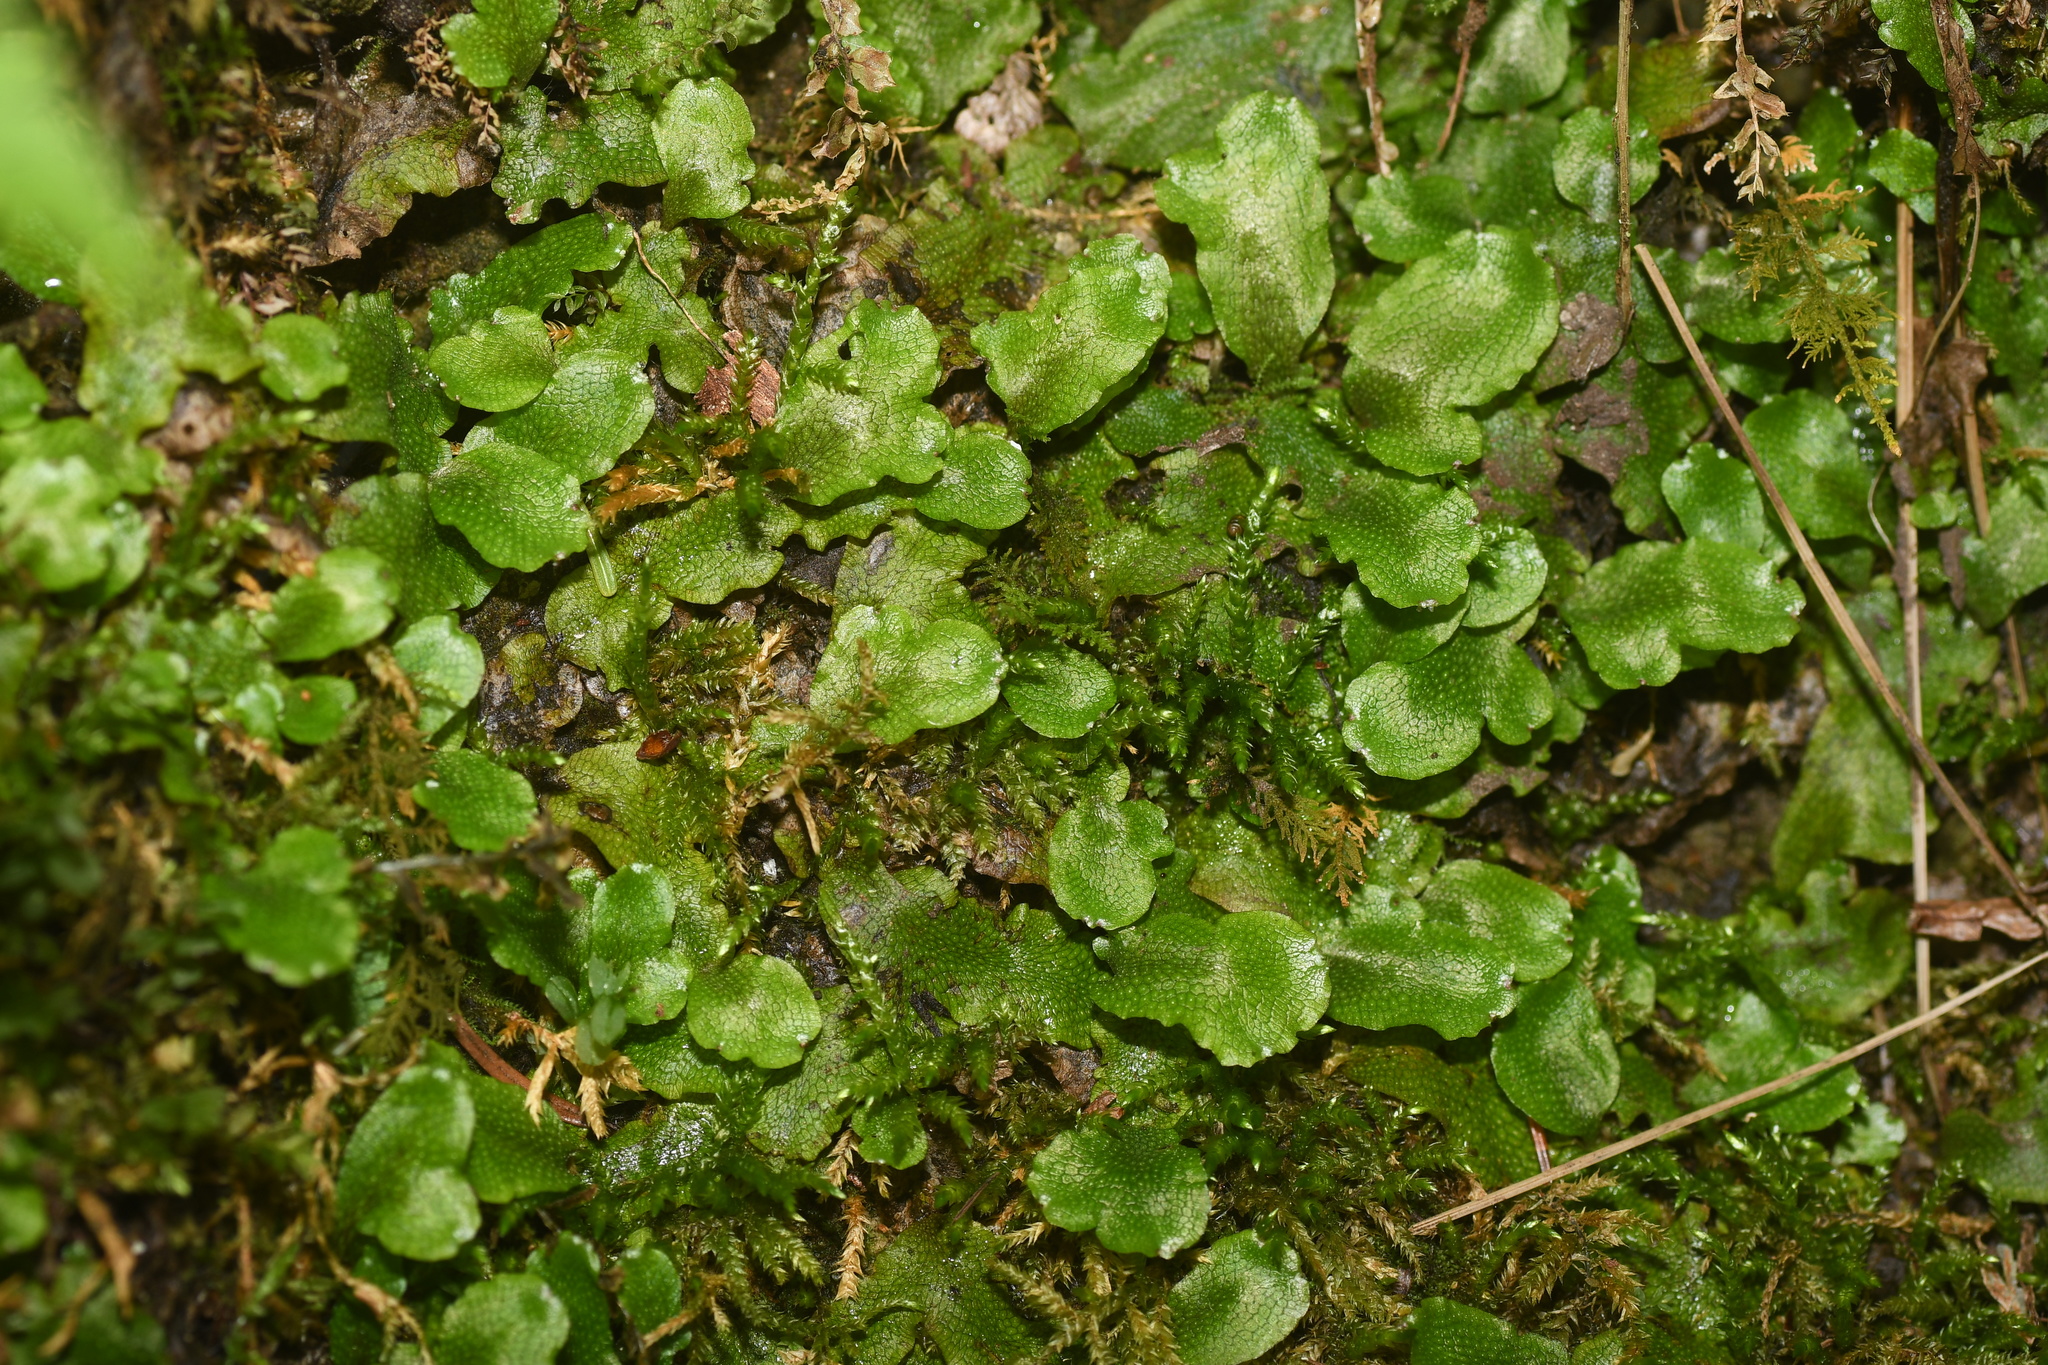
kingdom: Plantae
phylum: Marchantiophyta
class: Marchantiopsida
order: Marchantiales
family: Conocephalaceae
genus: Conocephalum
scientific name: Conocephalum salebrosum
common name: Cat-tongue liverwort
